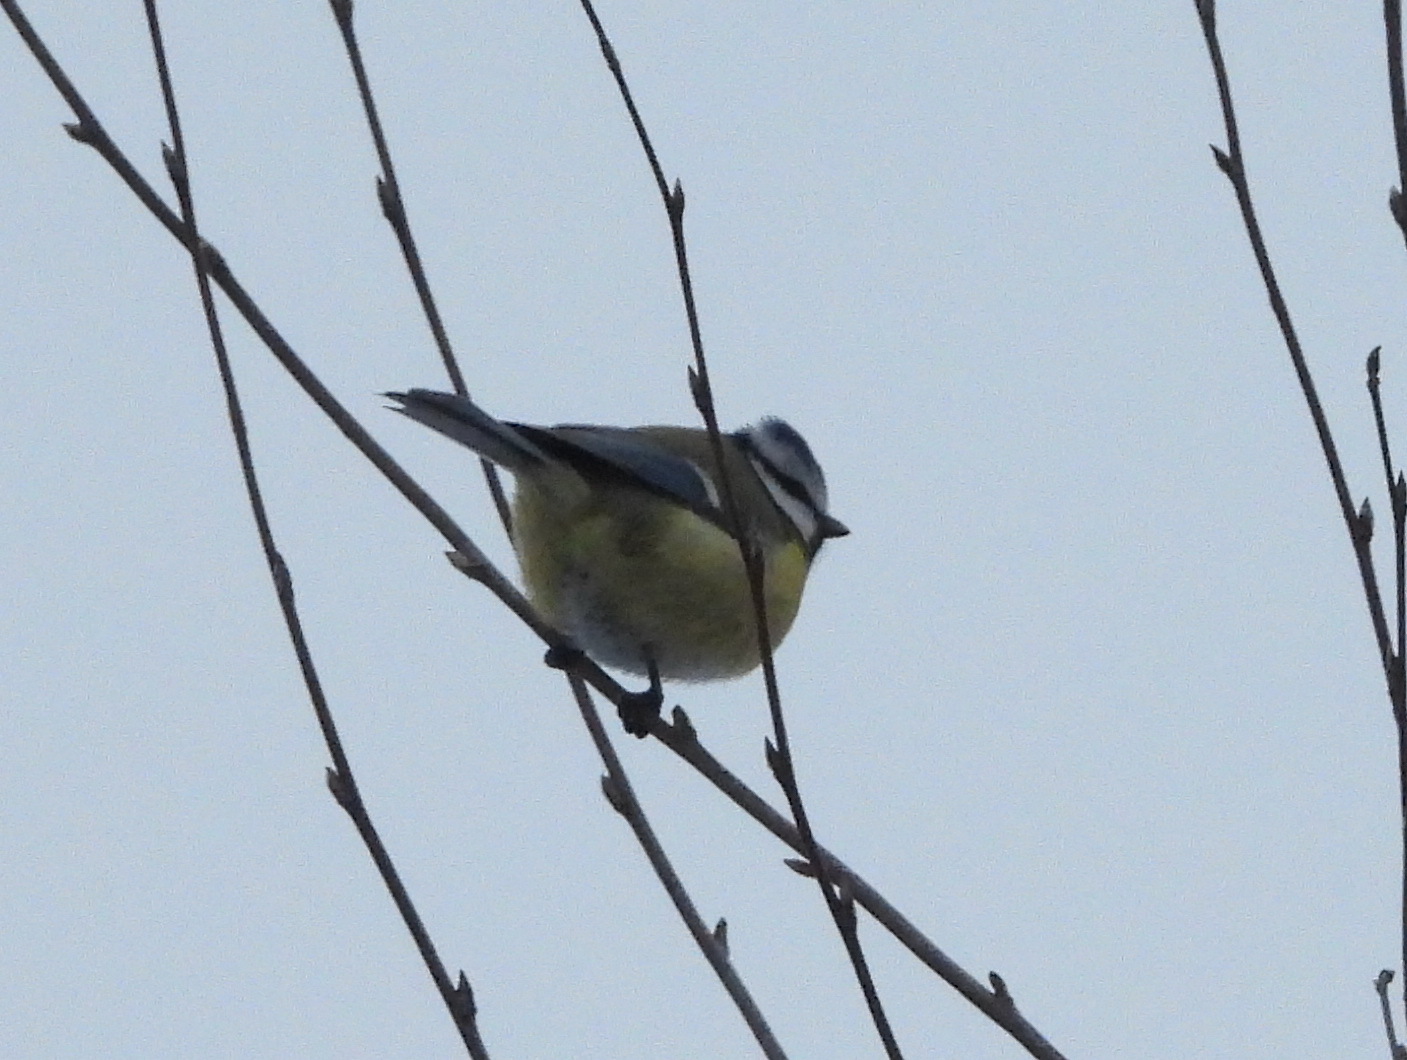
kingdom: Animalia
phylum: Chordata
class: Aves
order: Passeriformes
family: Paridae
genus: Cyanistes
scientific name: Cyanistes caeruleus
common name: Eurasian blue tit
